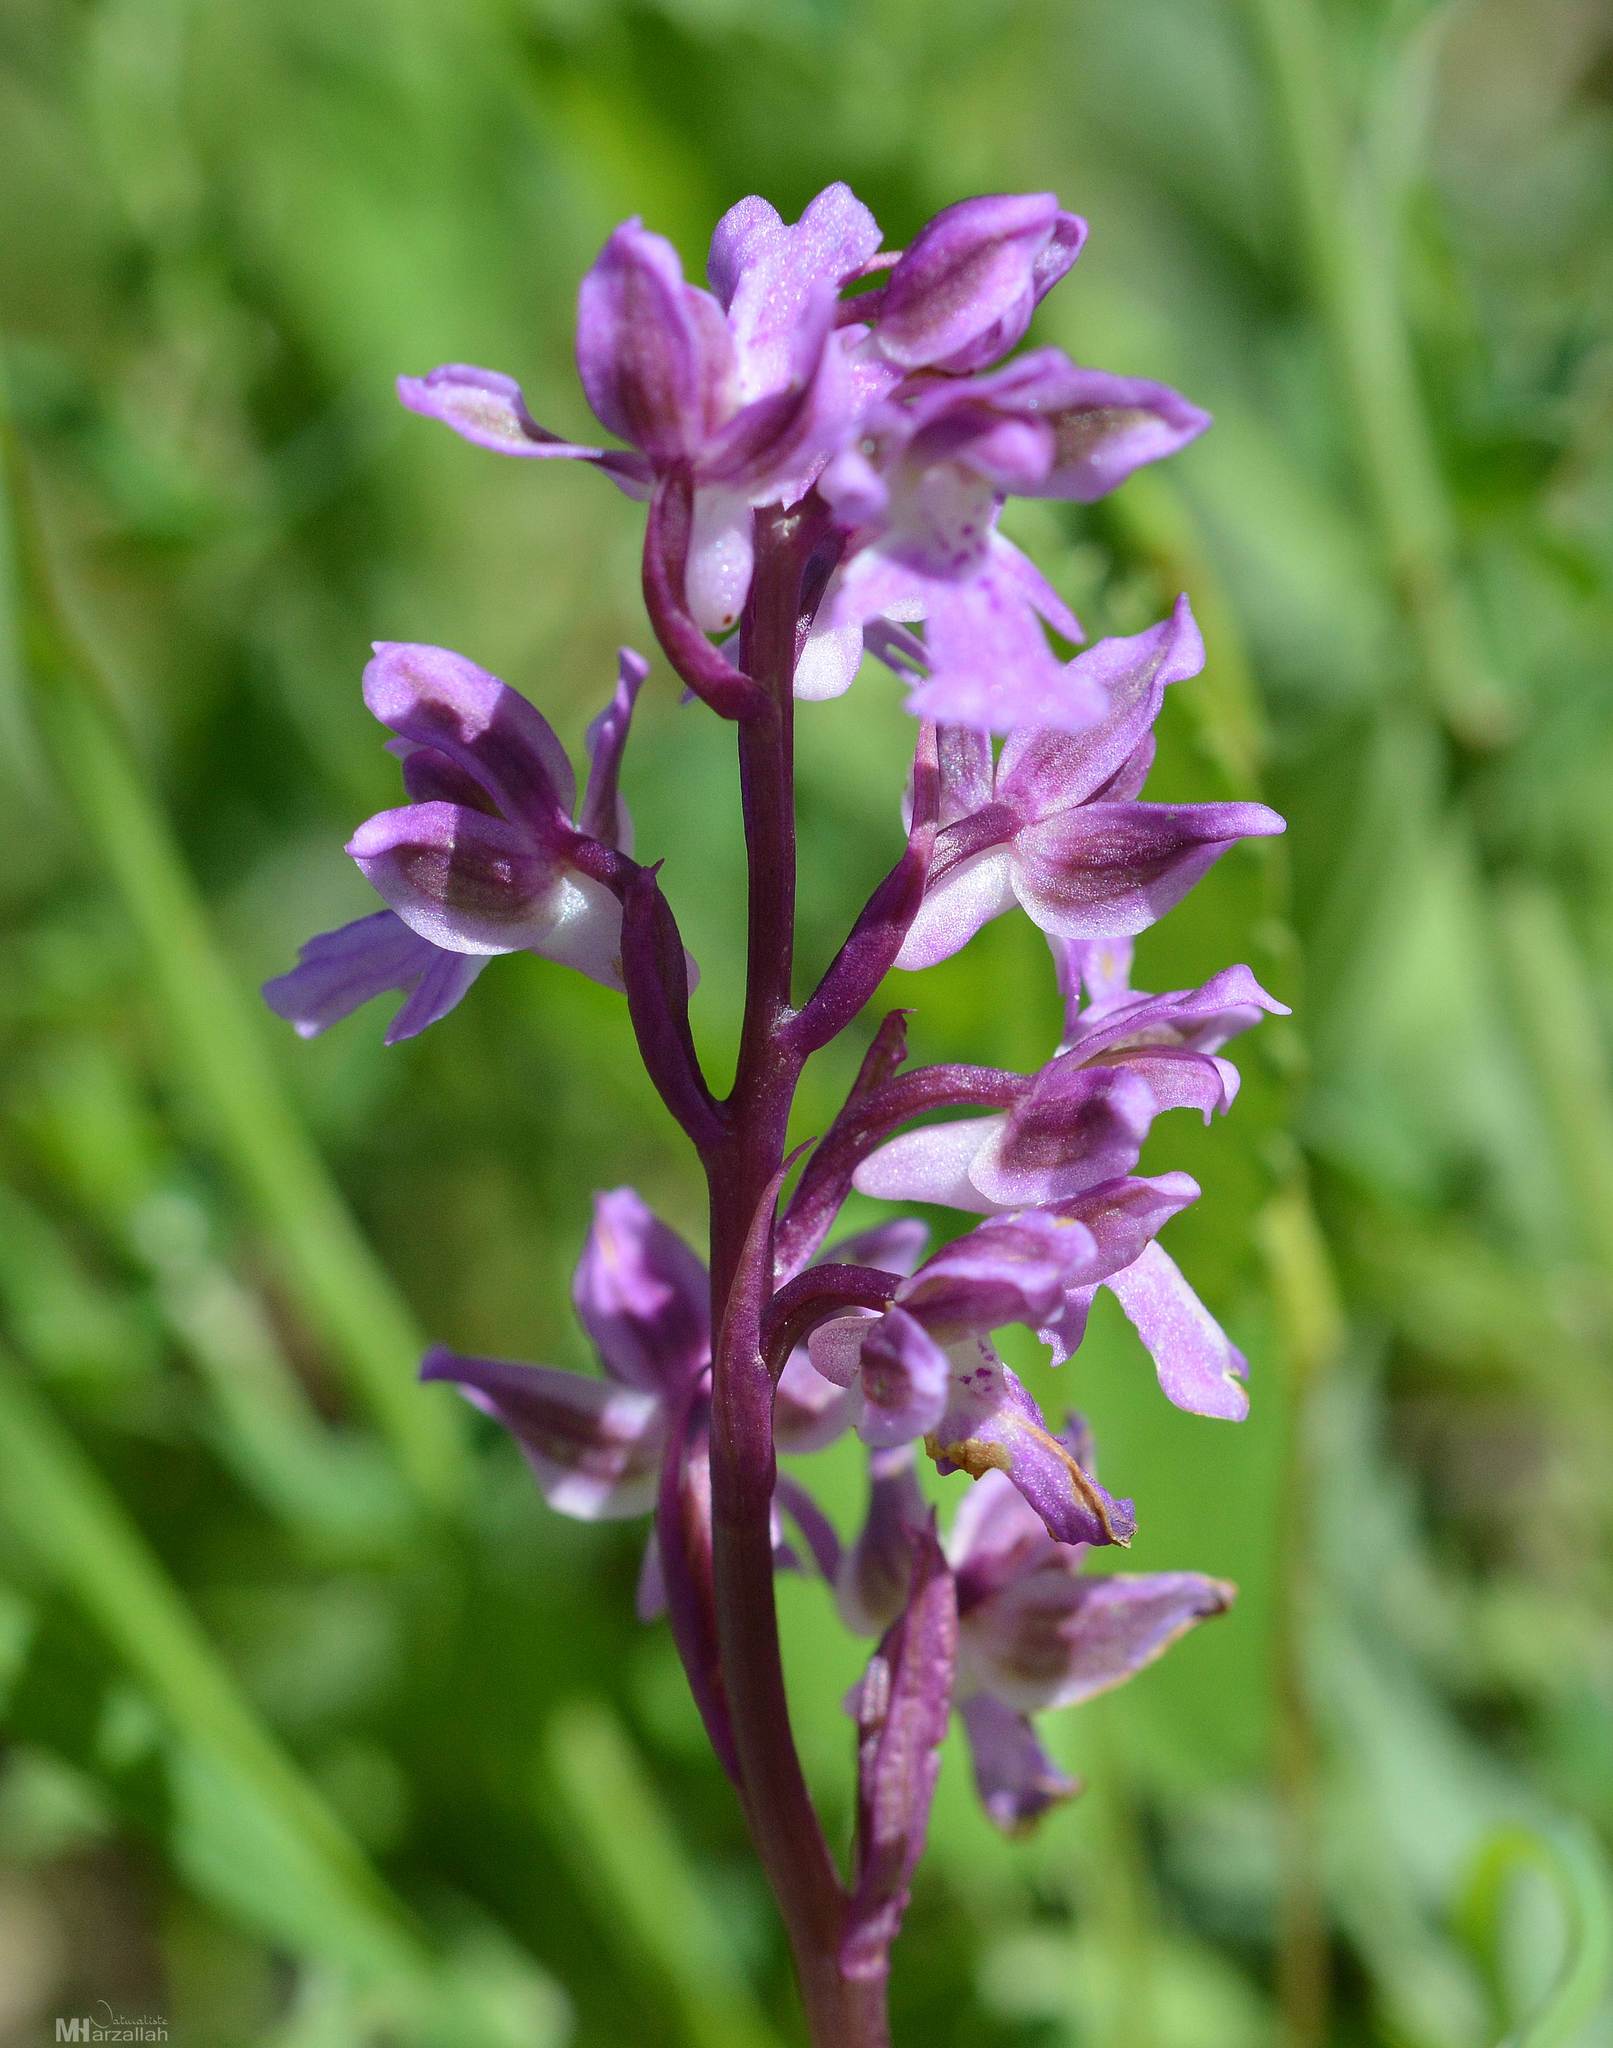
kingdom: Plantae
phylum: Tracheophyta
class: Liliopsida
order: Asparagales
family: Orchidaceae
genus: Orchis
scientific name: Orchis patens
